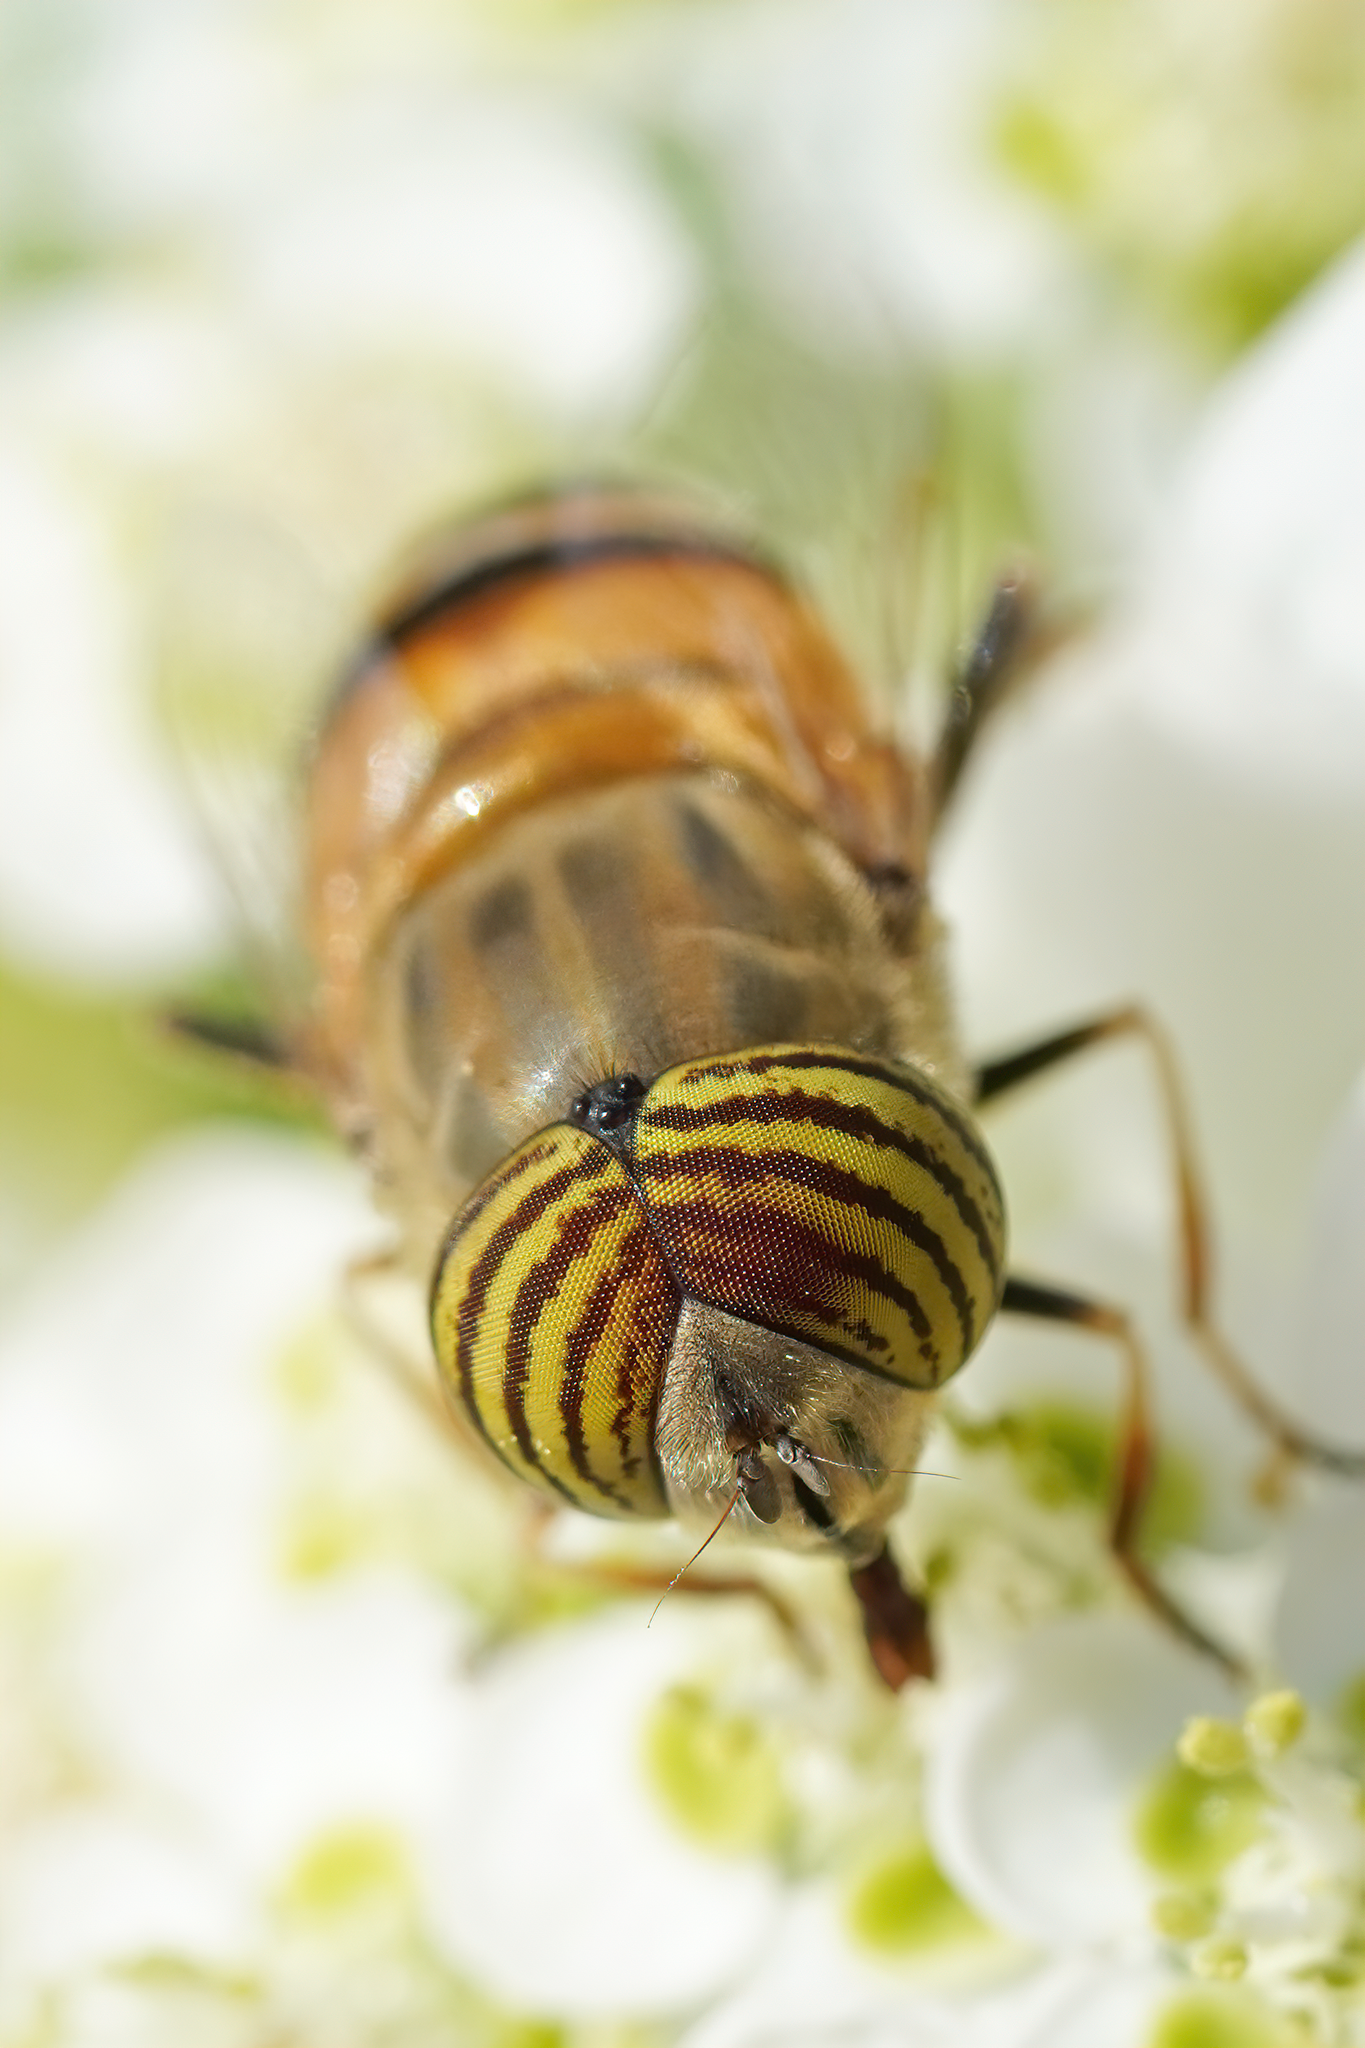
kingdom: Animalia
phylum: Arthropoda
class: Insecta
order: Diptera
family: Syrphidae
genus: Eristalinus
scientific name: Eristalinus taeniops
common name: Syrphid fly
